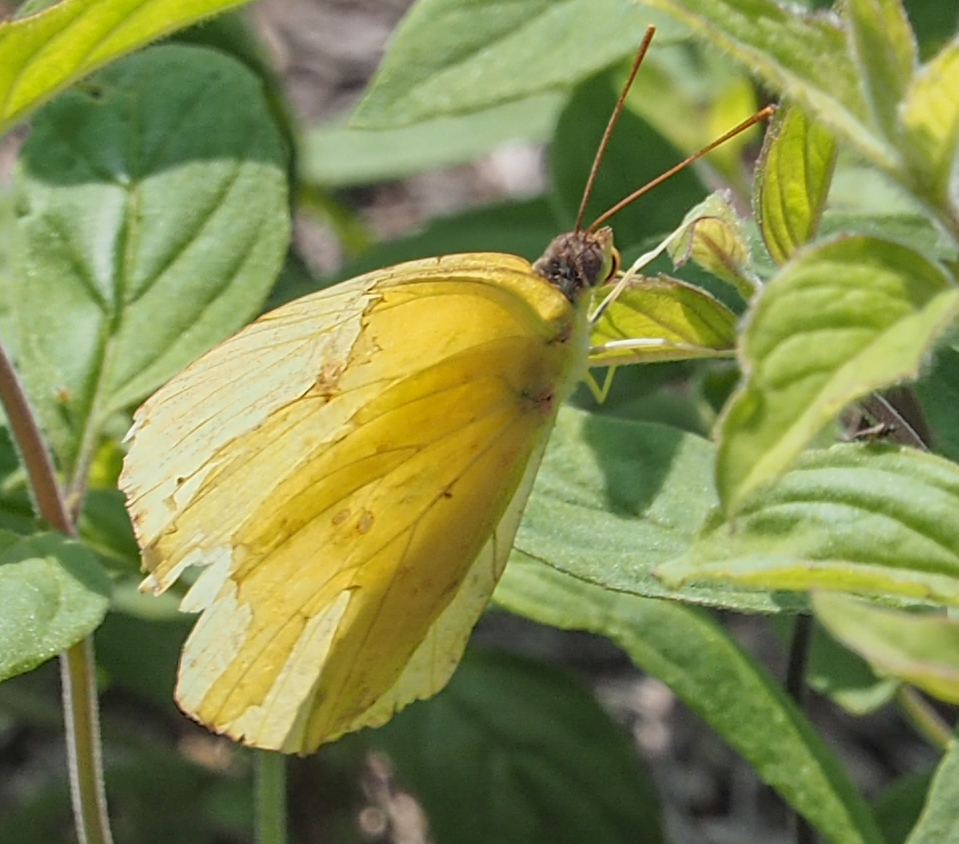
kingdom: Animalia
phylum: Arthropoda
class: Insecta
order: Lepidoptera
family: Pieridae
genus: Phoebis
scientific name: Phoebis sennae
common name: Cloudless sulphur
